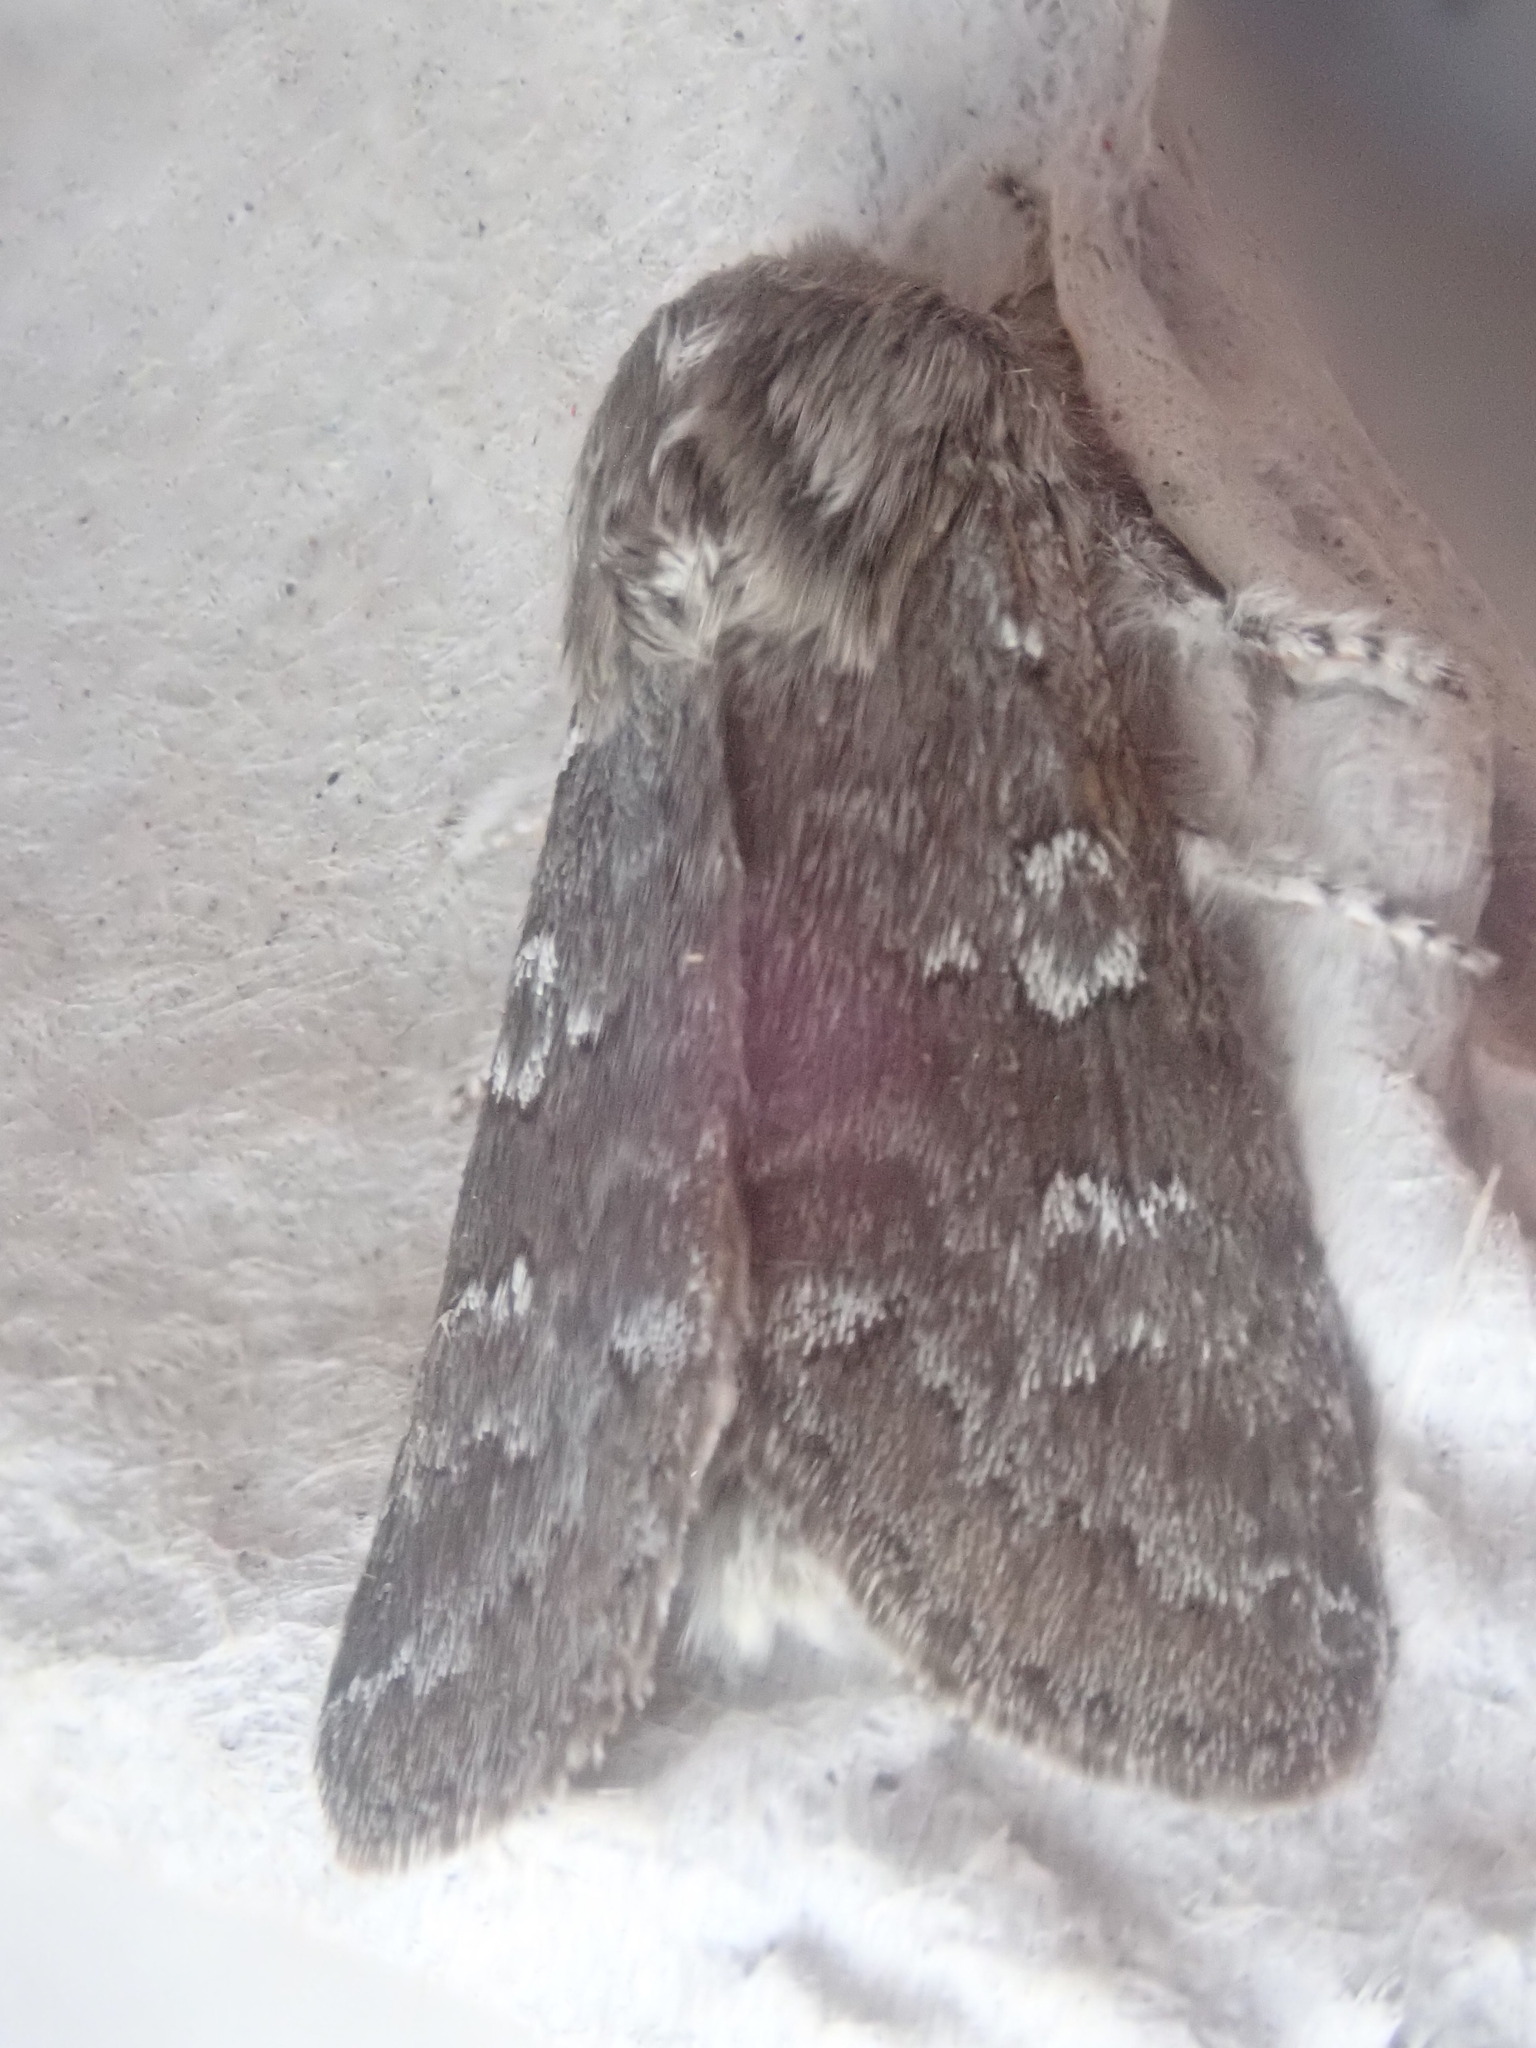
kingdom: Animalia
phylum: Arthropoda
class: Insecta
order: Lepidoptera
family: Noctuidae
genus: Psaphida
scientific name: Psaphida rolandi
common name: Roland's sallow
